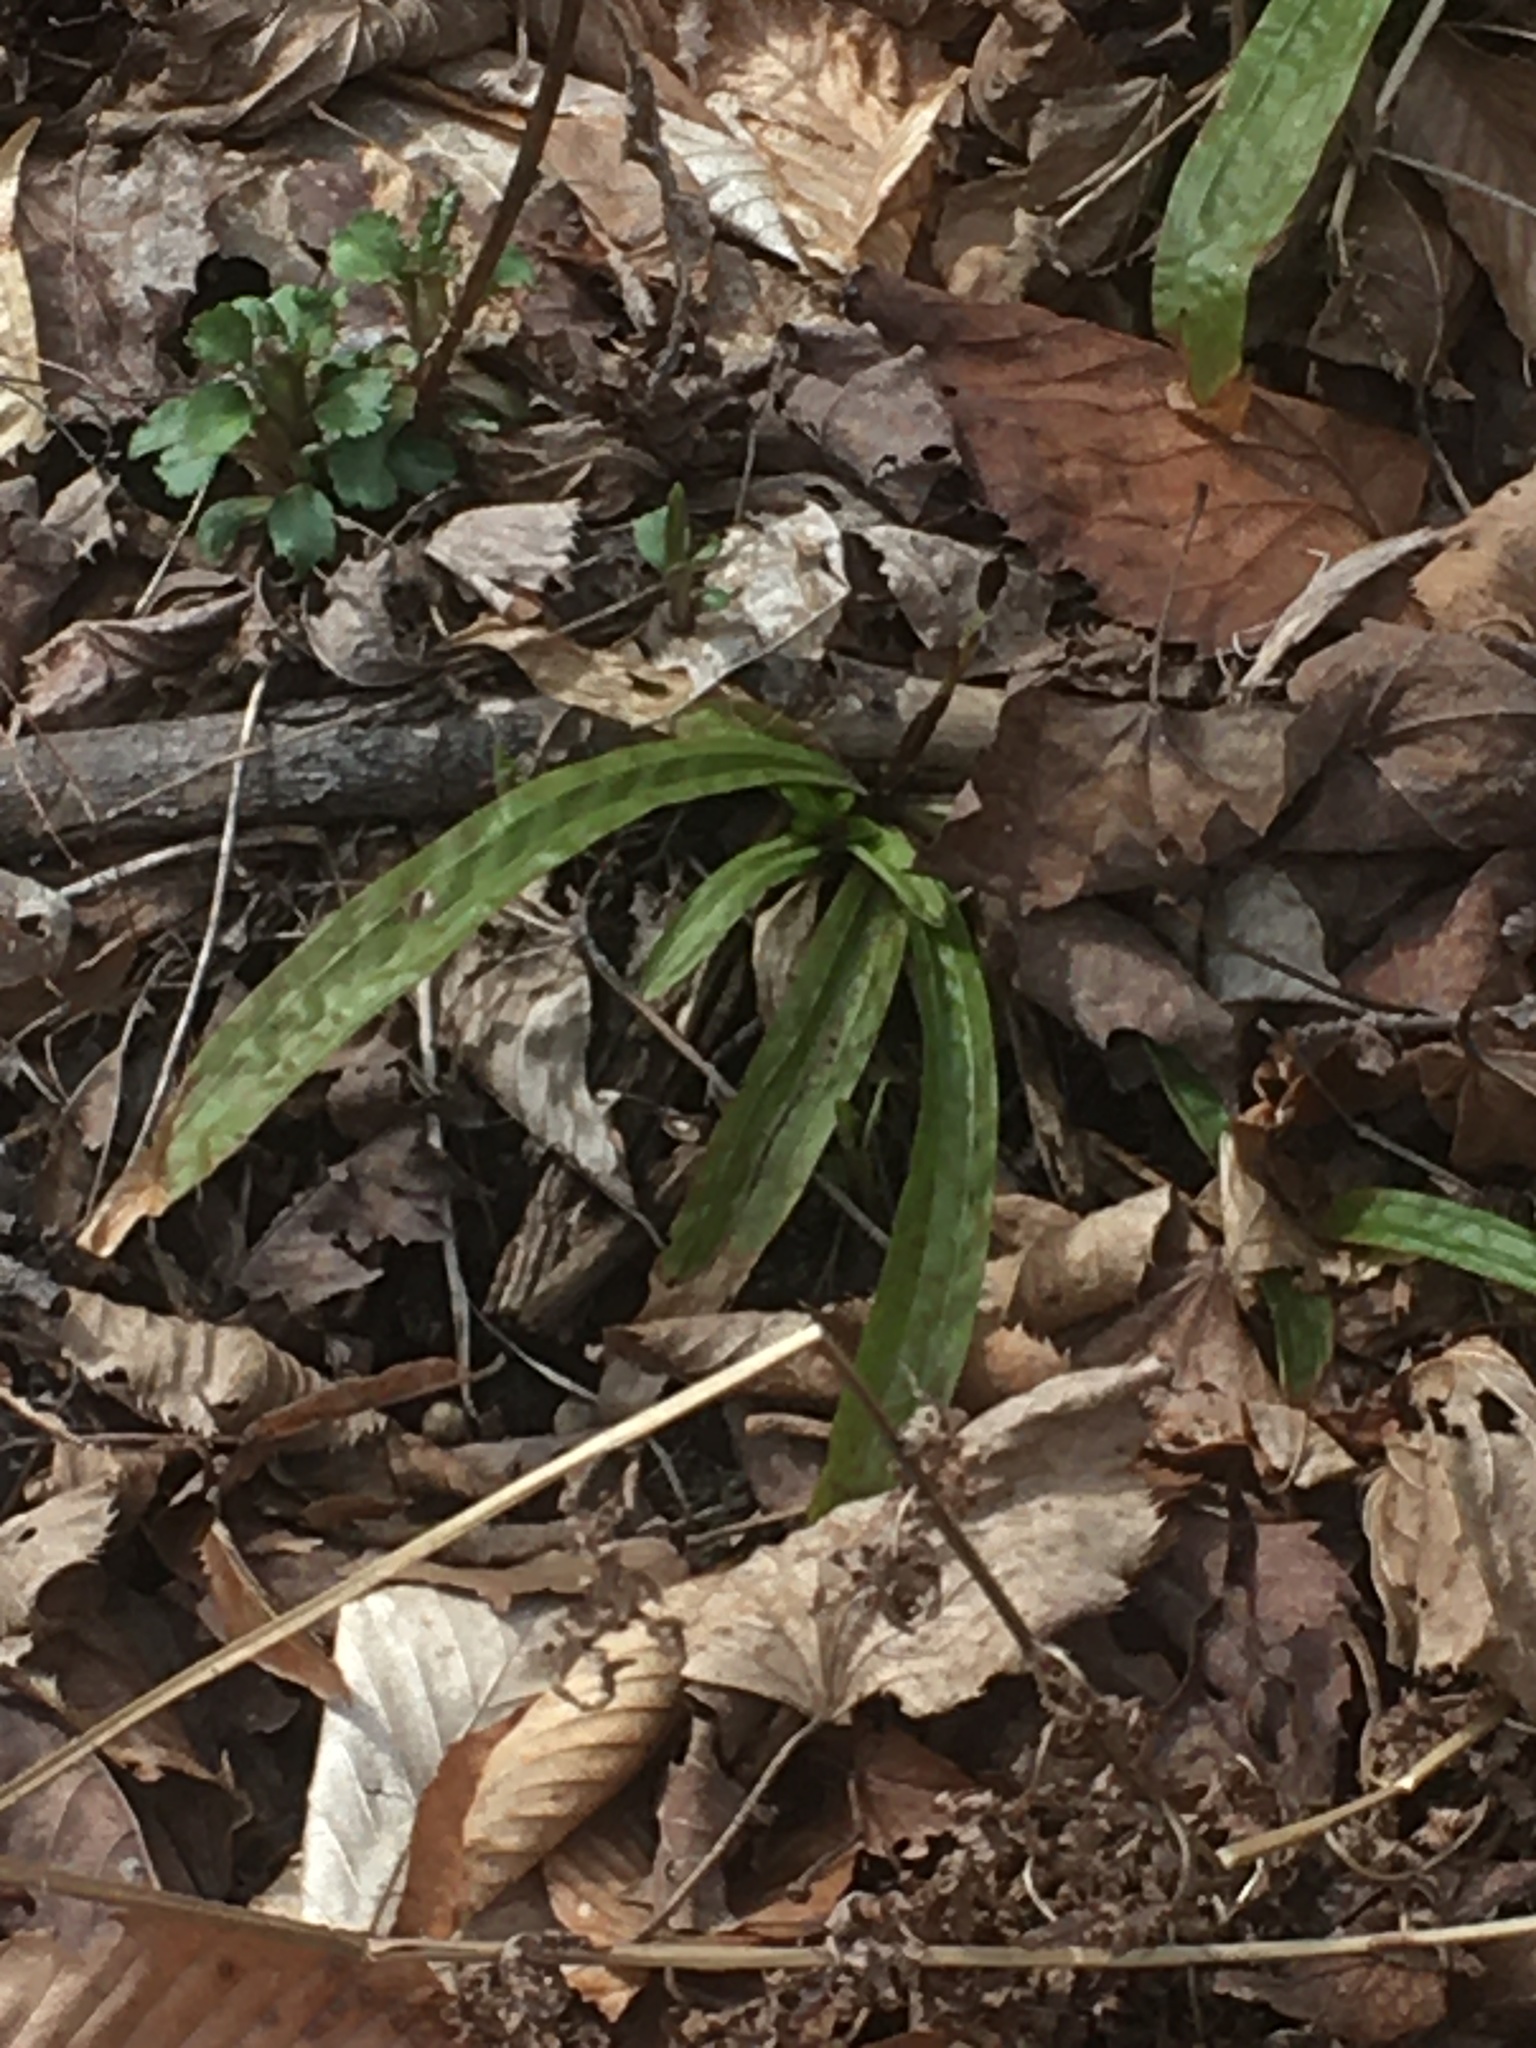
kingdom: Plantae
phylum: Tracheophyta
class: Liliopsida
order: Poales
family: Cyperaceae
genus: Carex
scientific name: Carex plantaginea
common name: Plantain-leaved sedge
